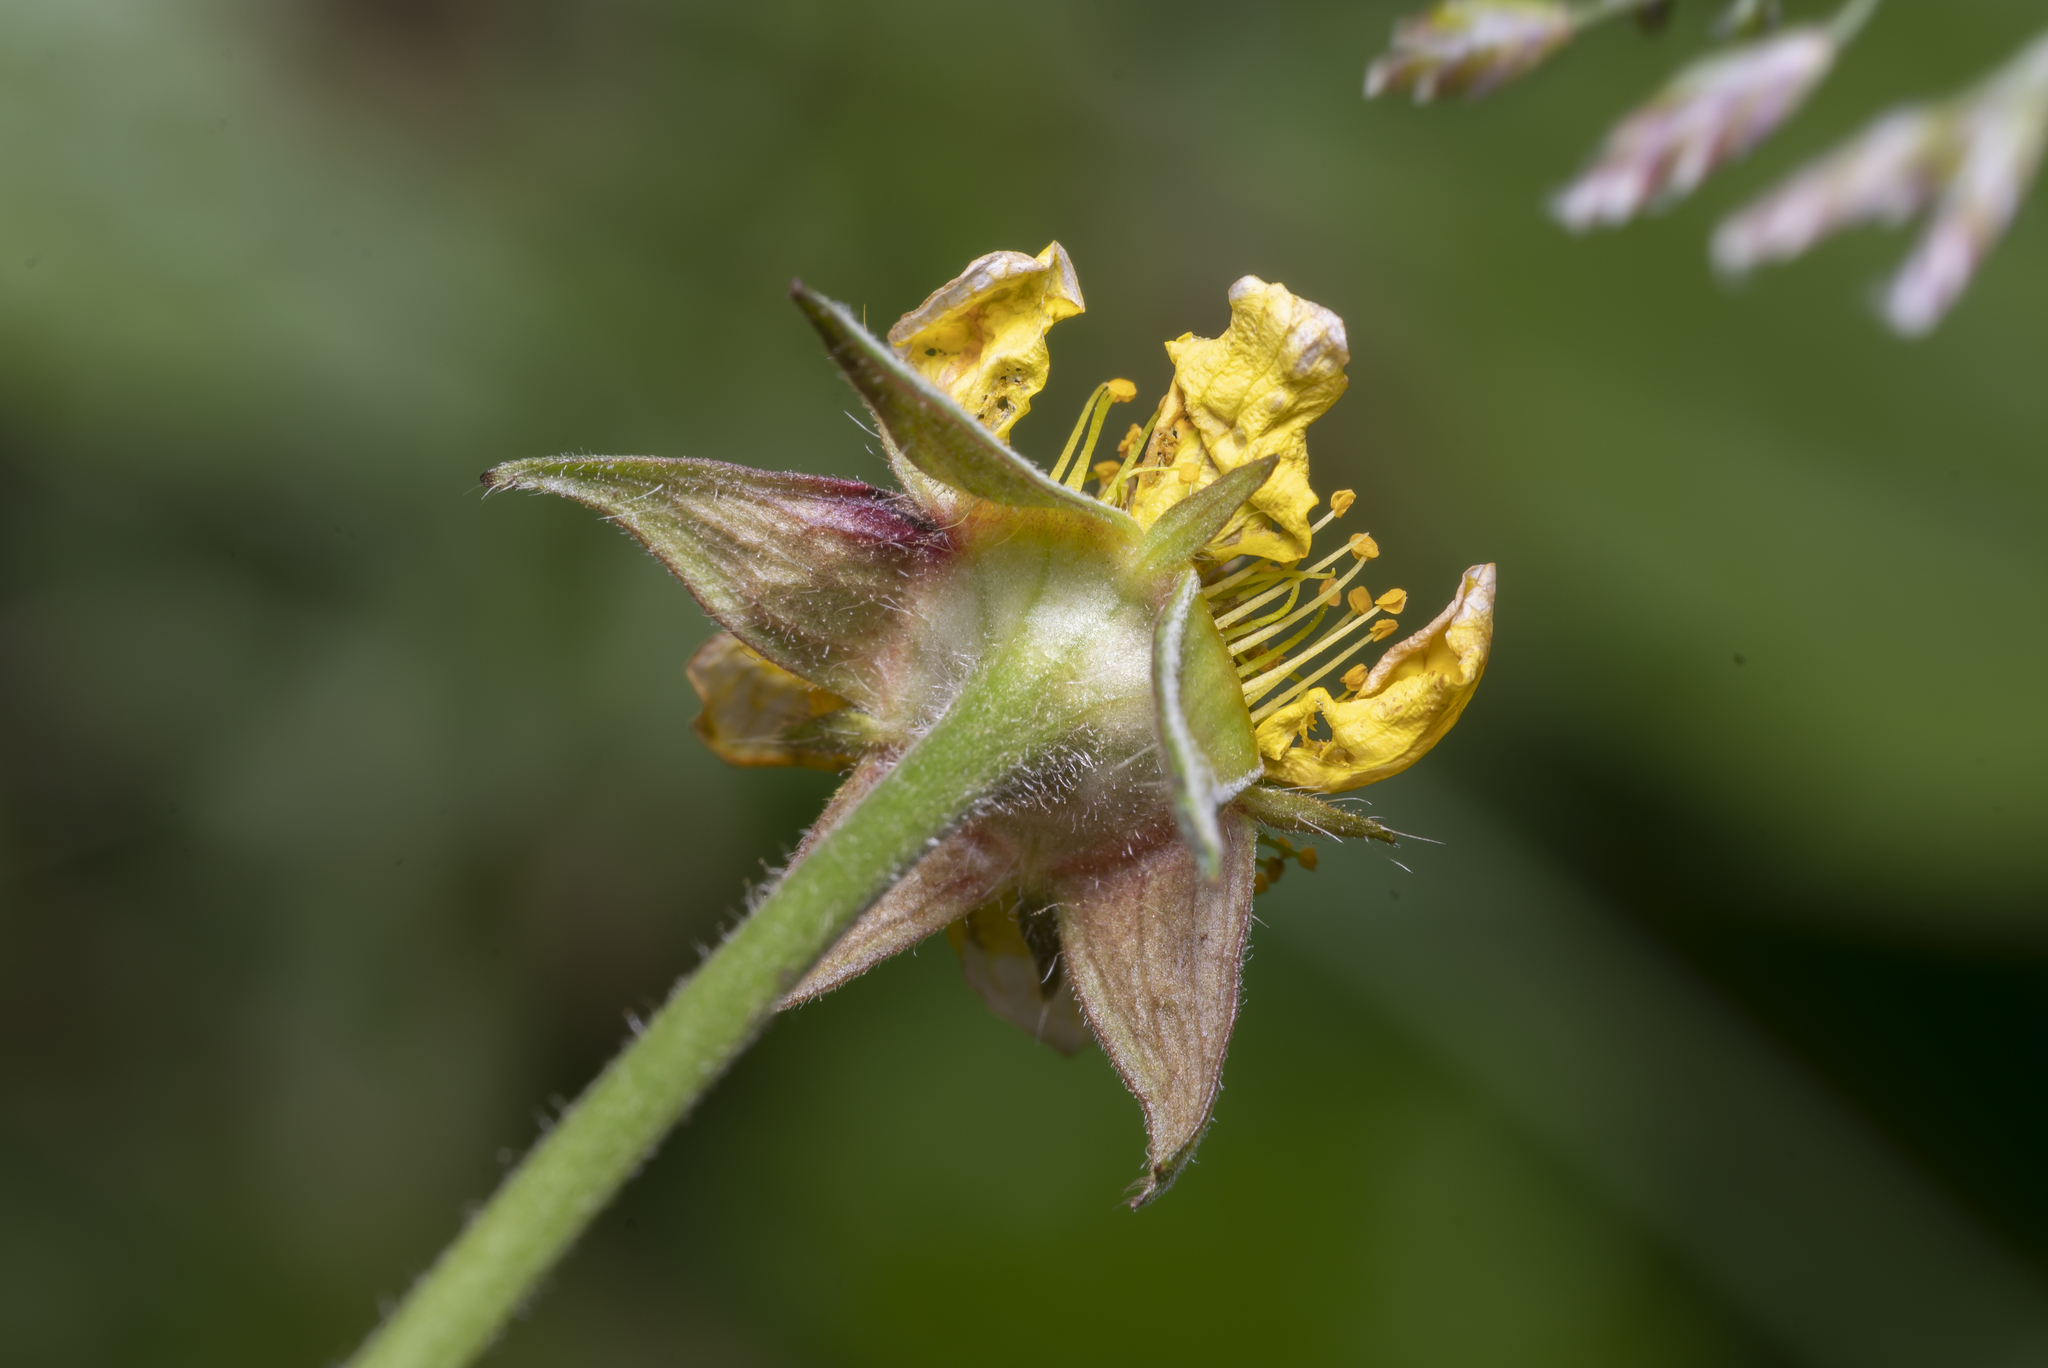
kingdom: Plantae
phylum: Tracheophyta
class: Magnoliopsida
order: Rosales
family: Rosaceae
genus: Geum
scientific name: Geum urbanum
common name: Wood avens
